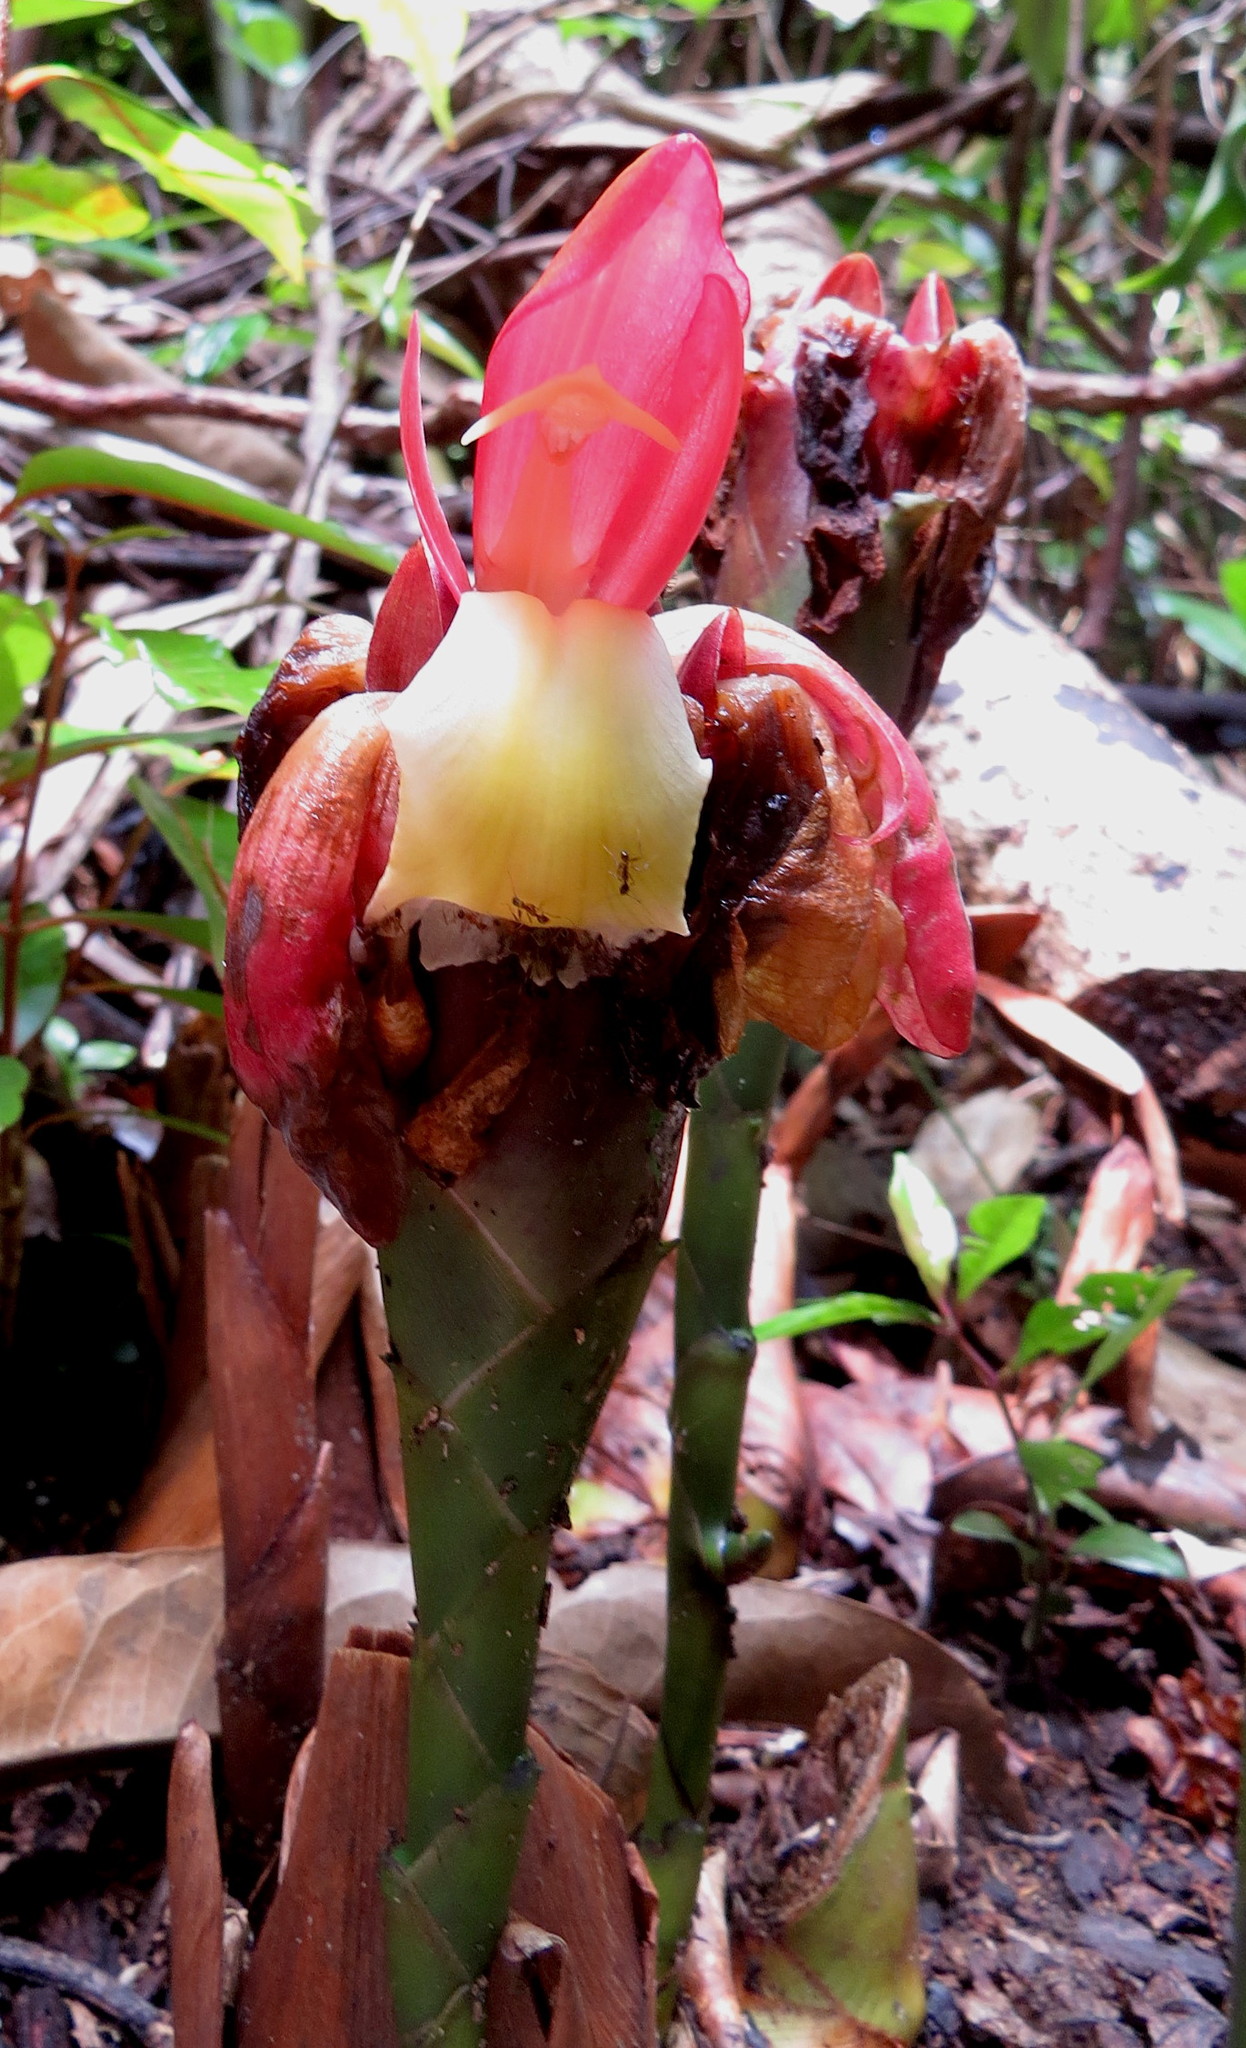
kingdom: Plantae
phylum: Tracheophyta
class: Liliopsida
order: Zingiberales
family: Zingiberaceae
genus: Aframomum
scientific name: Aframomum angustifolium
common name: Guinea grains
